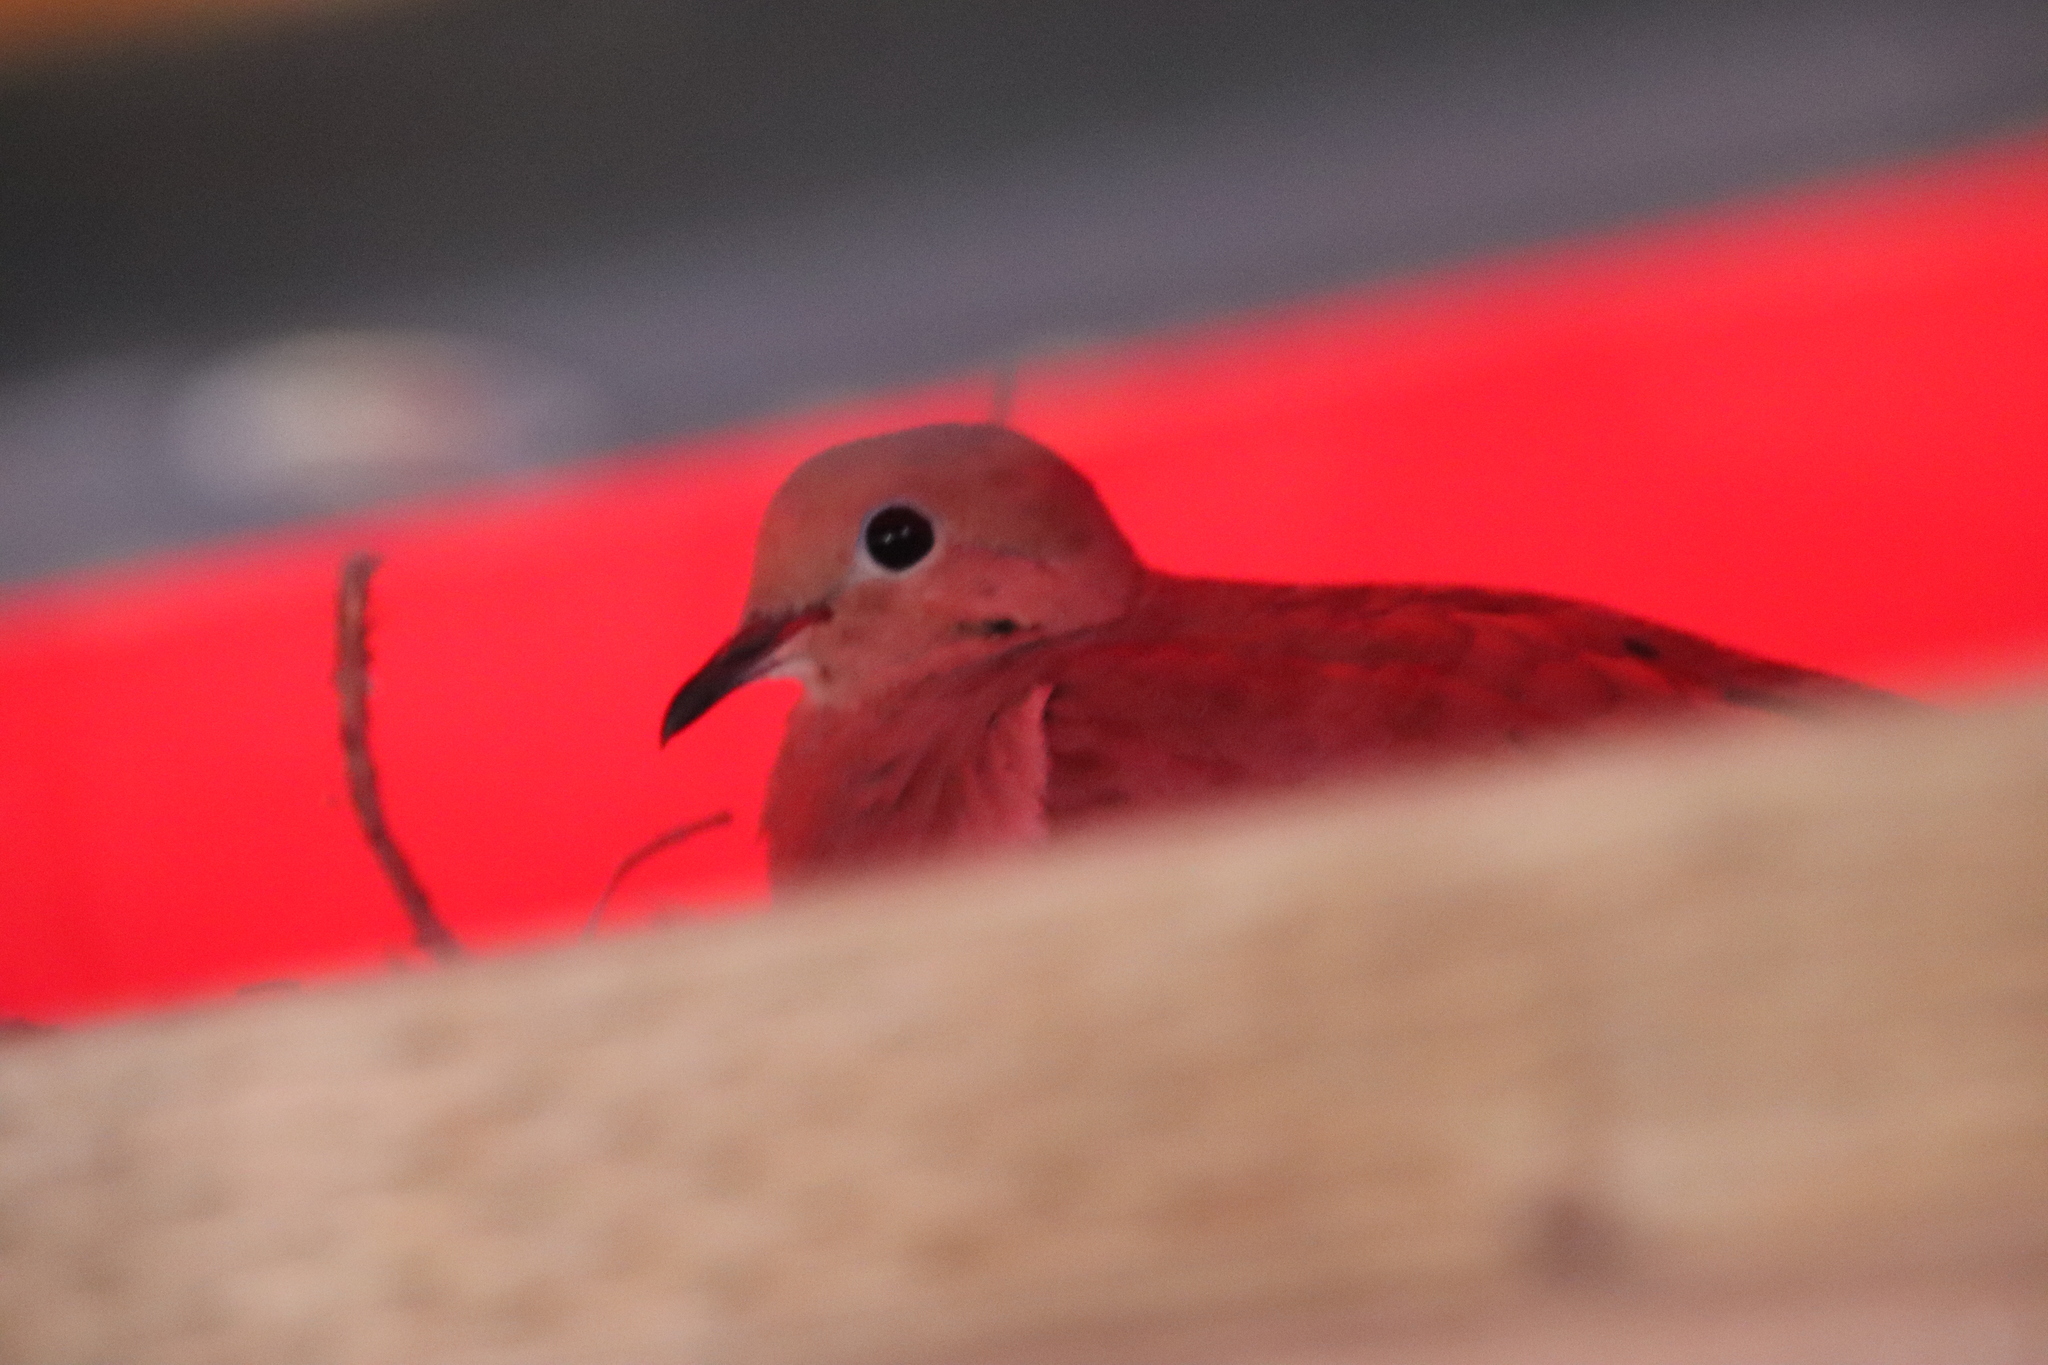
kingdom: Animalia
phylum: Chordata
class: Aves
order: Columbiformes
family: Columbidae
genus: Zenaida
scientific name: Zenaida macroura
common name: Mourning dove
